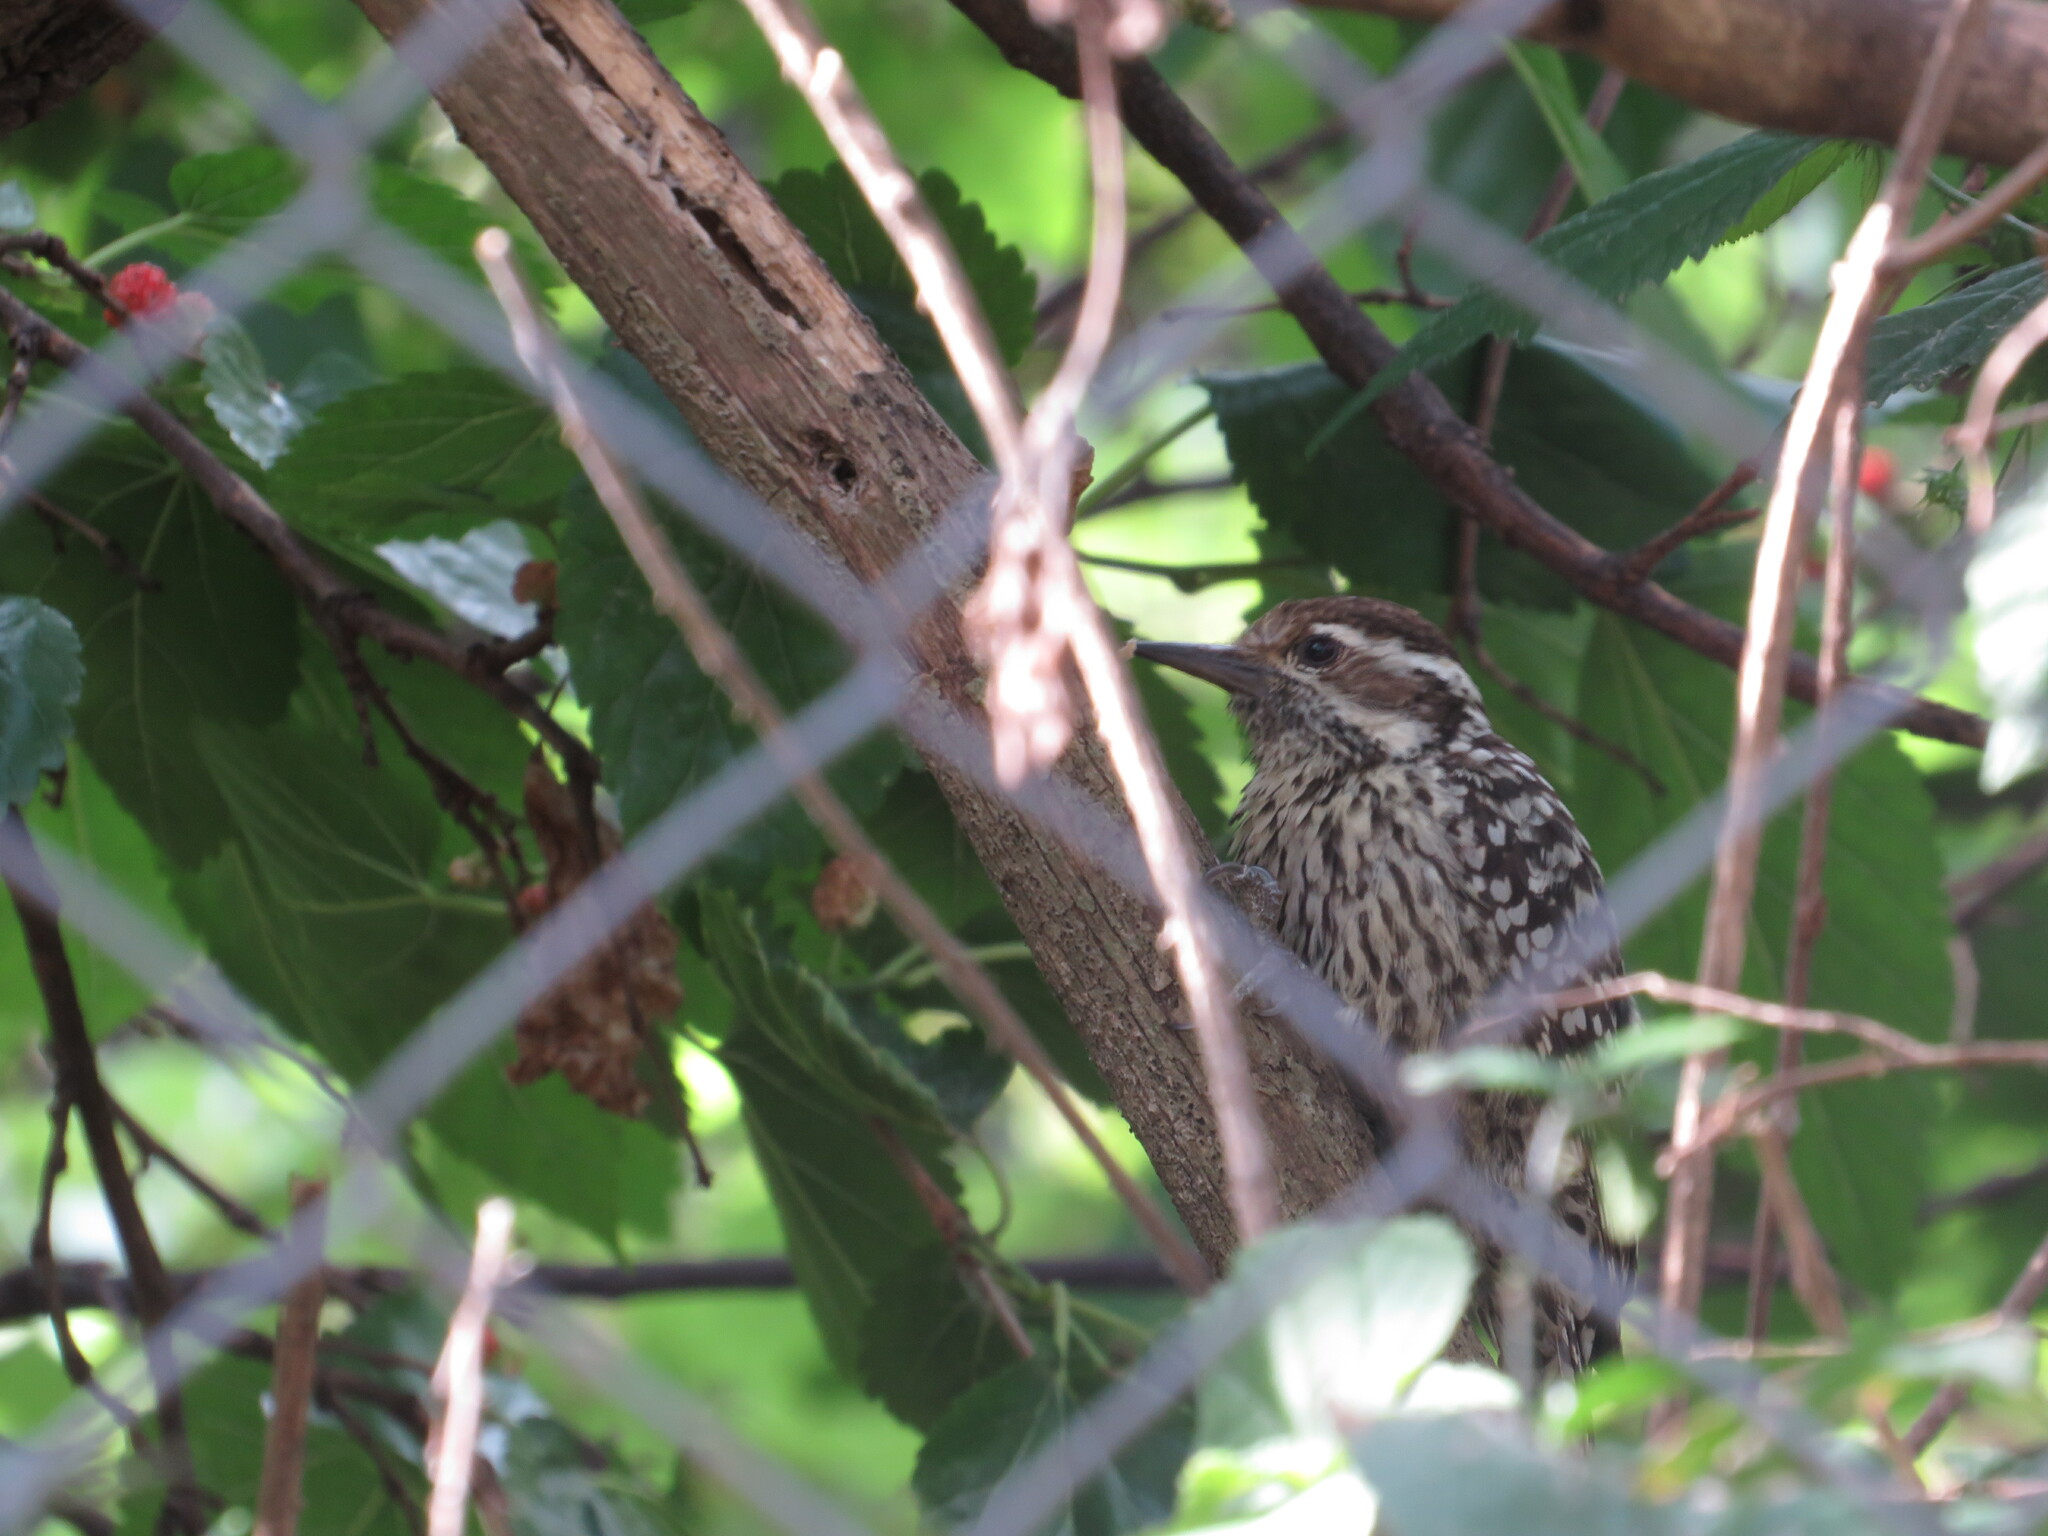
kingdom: Animalia
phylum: Chordata
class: Aves
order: Piciformes
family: Picidae
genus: Veniliornis
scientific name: Veniliornis mixtus
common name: Checkered woodpecker
